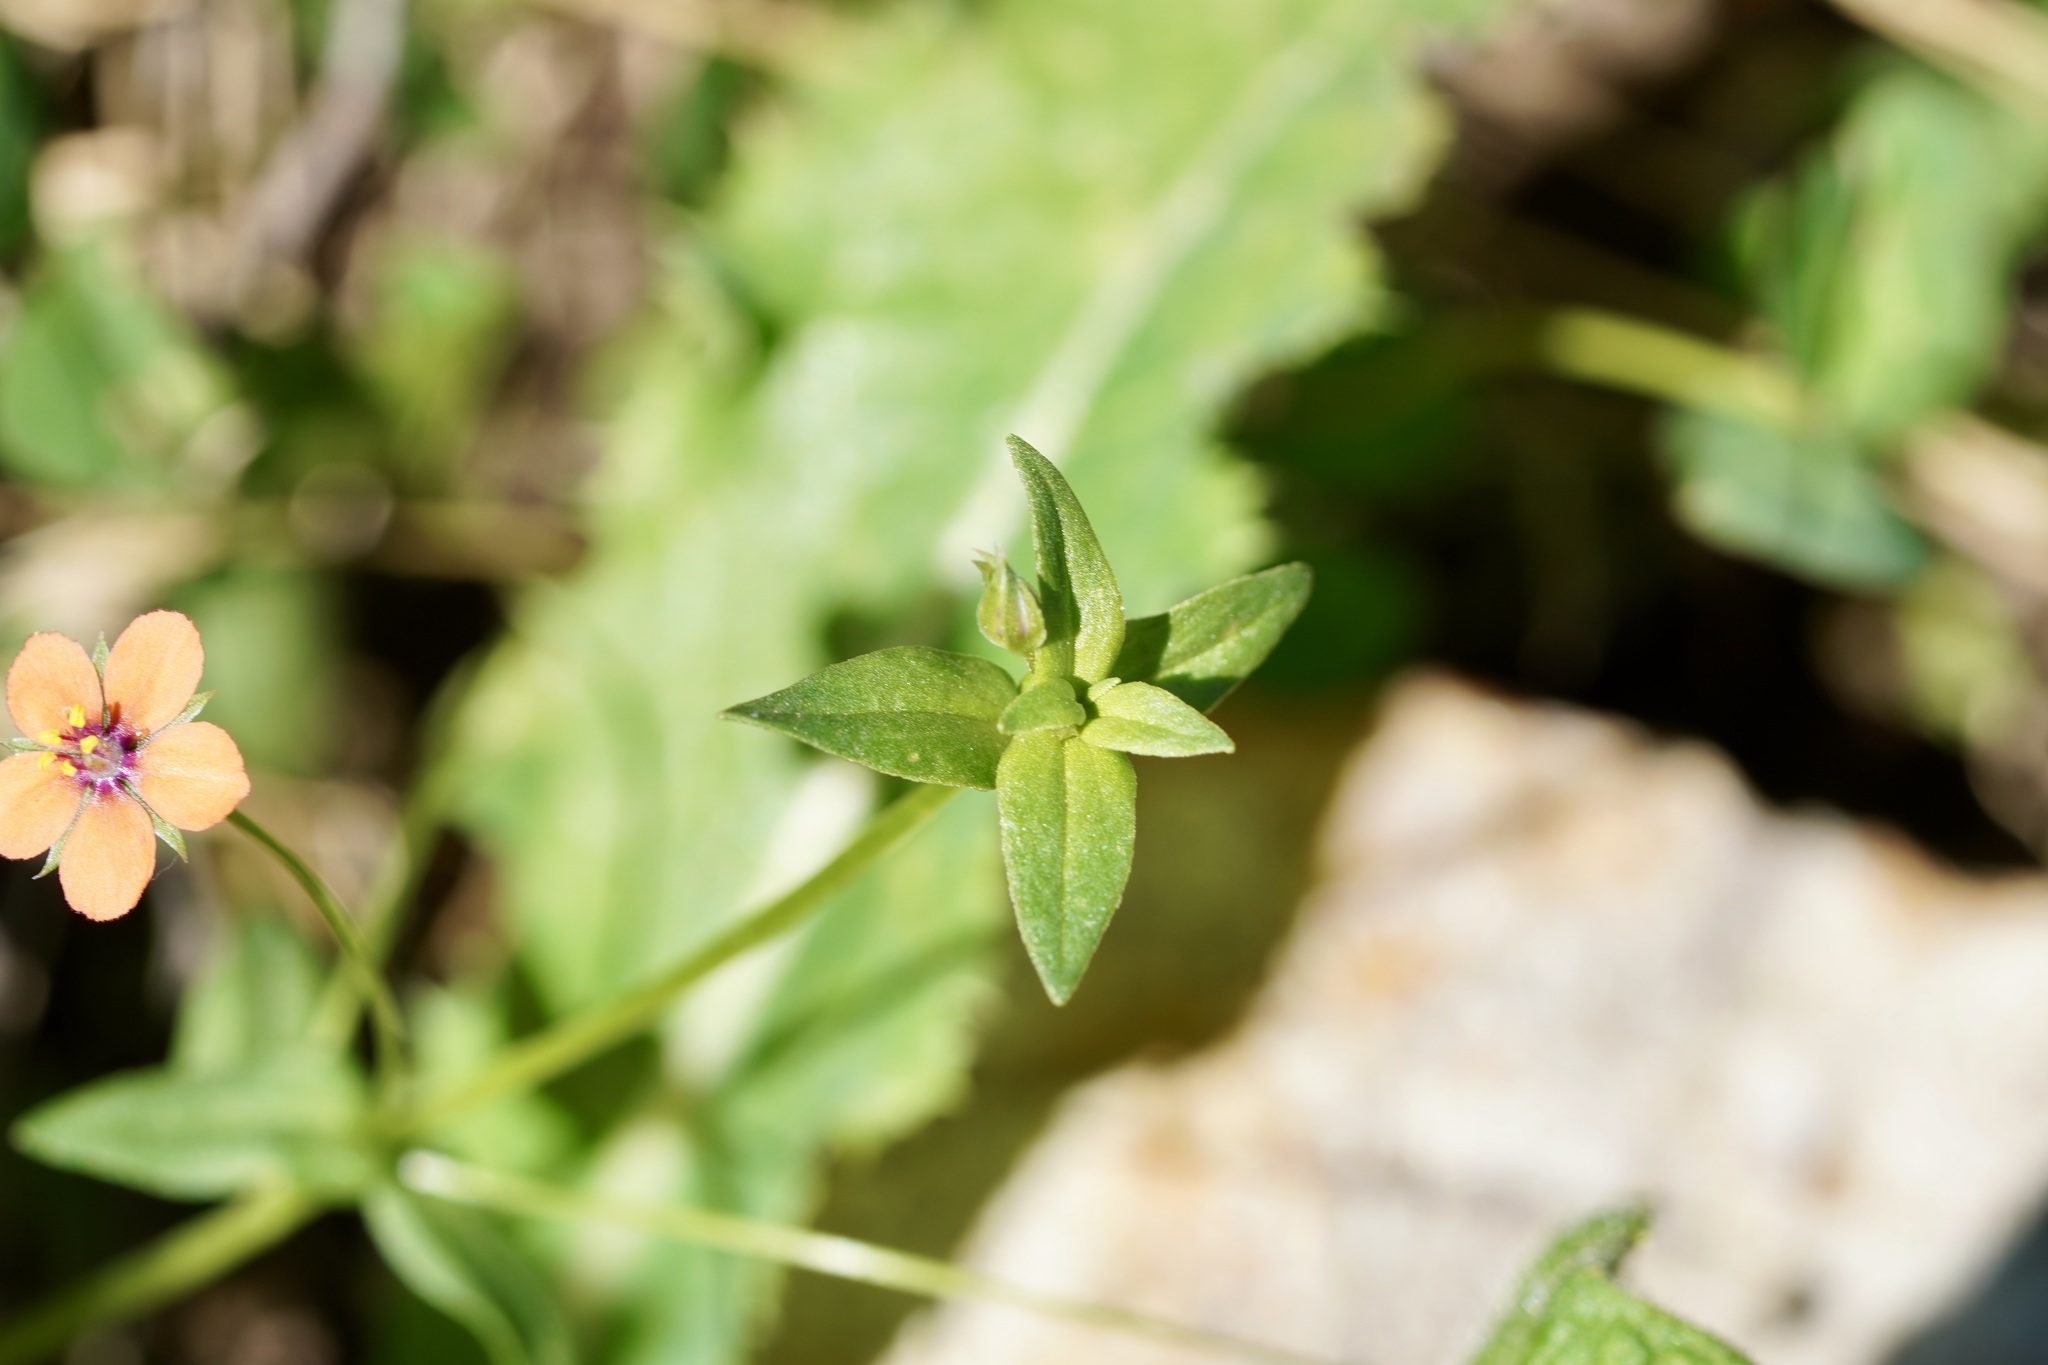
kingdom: Plantae
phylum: Tracheophyta
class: Magnoliopsida
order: Ericales
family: Primulaceae
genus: Lysimachia
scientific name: Lysimachia arvensis
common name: Scarlet pimpernel
